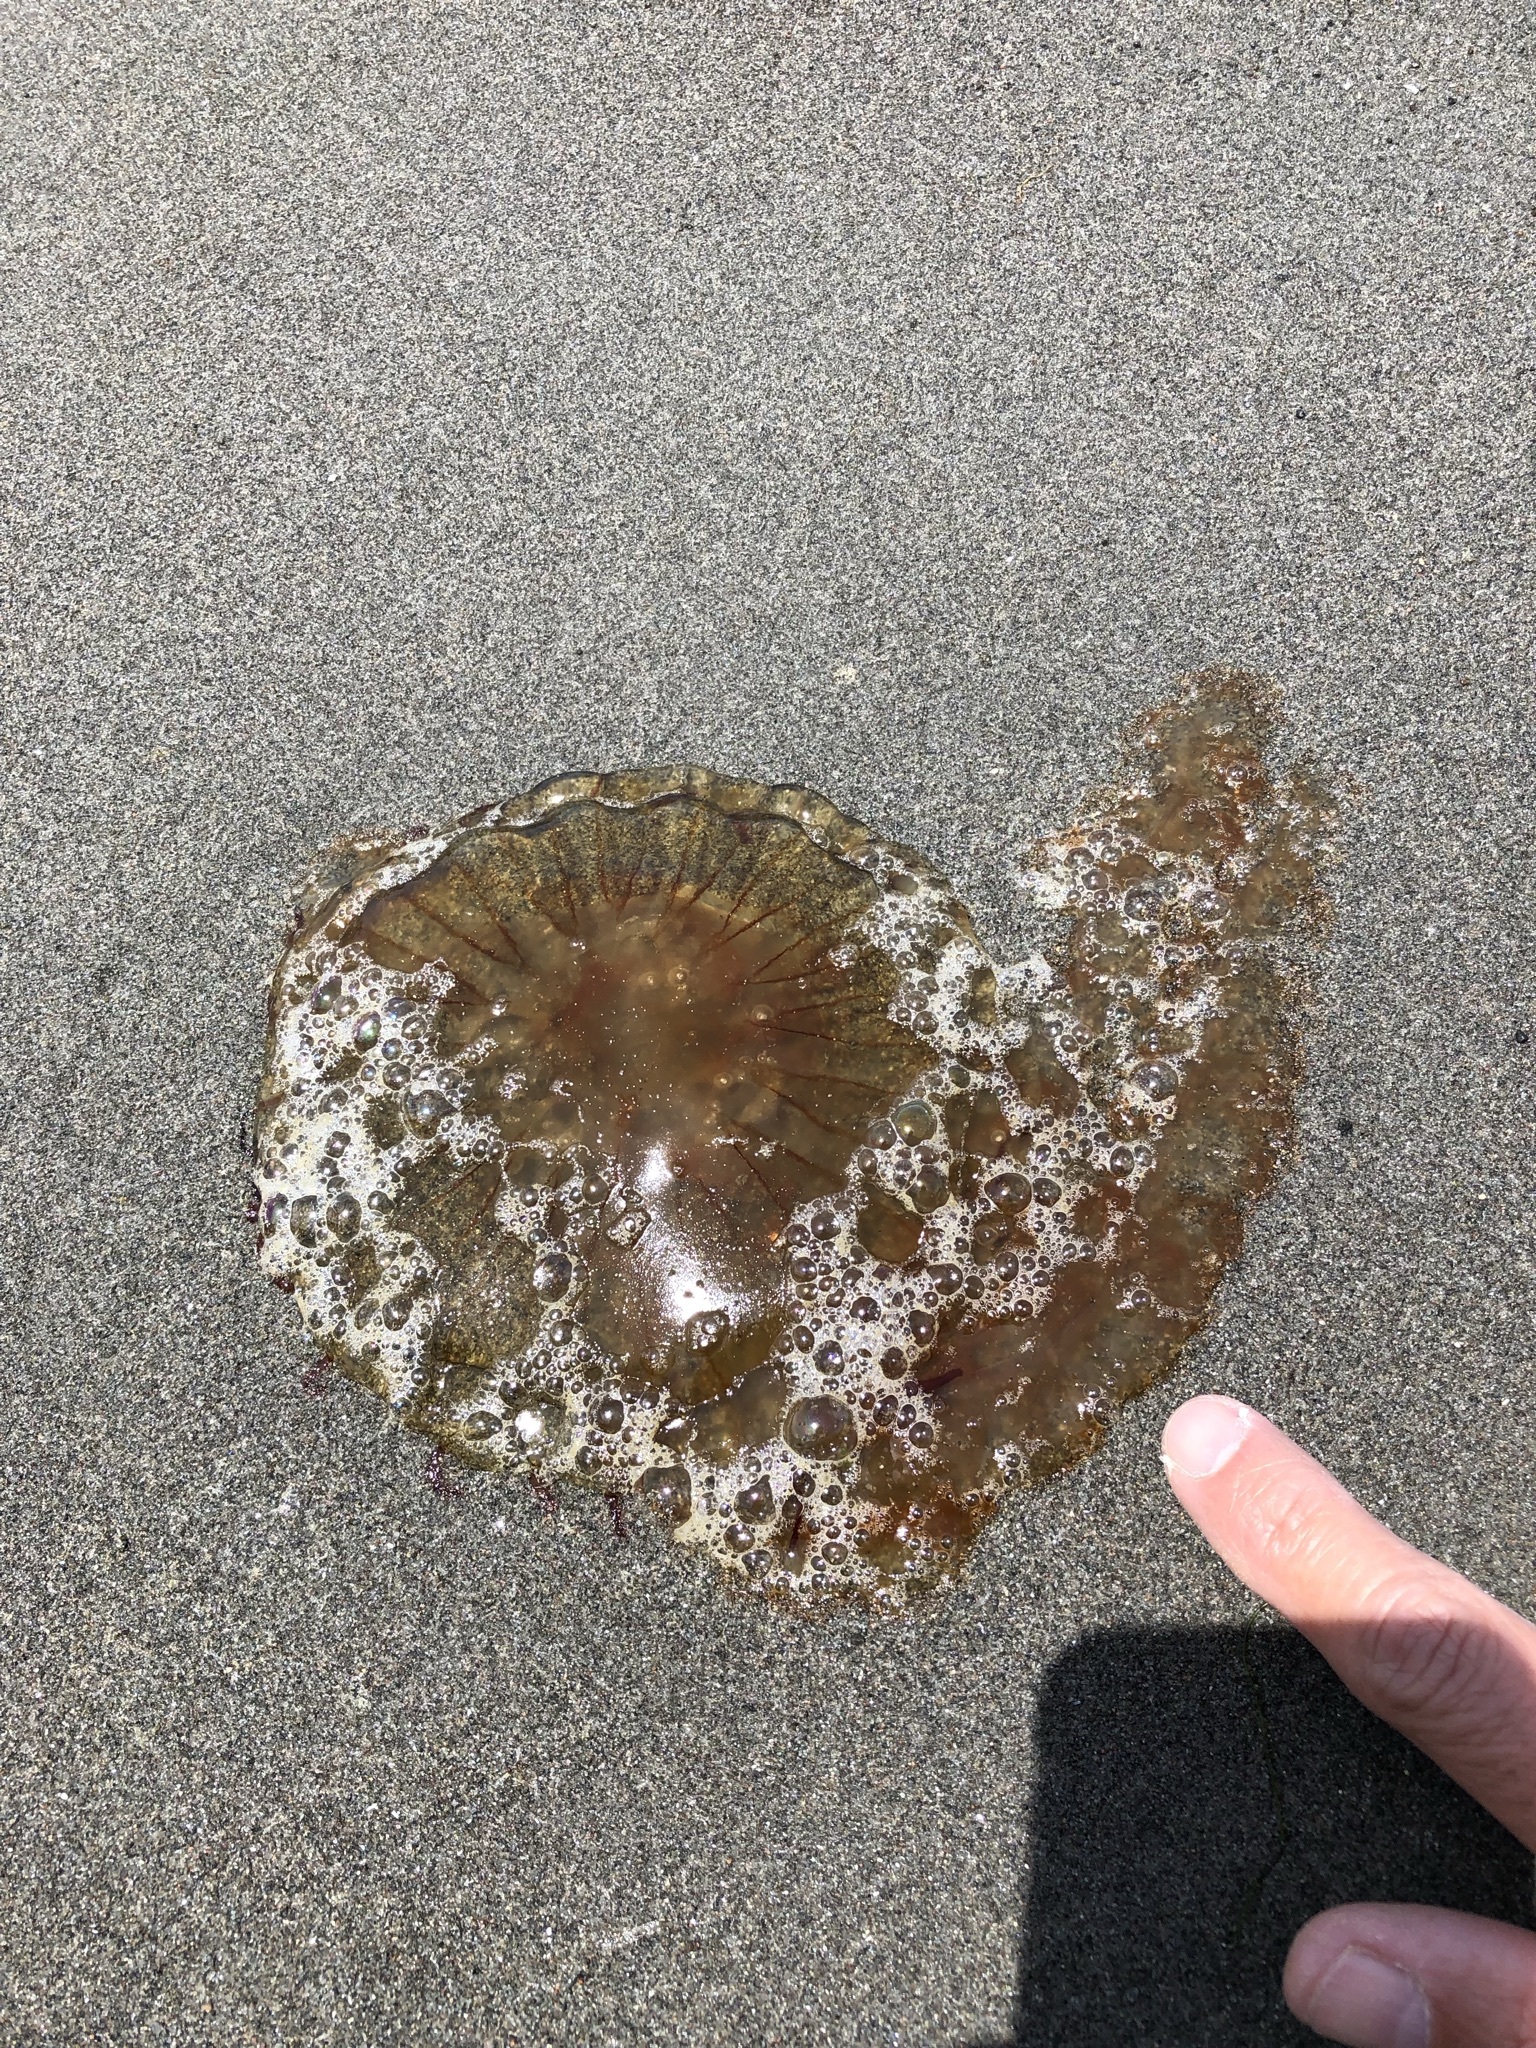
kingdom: Animalia
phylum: Cnidaria
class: Scyphozoa
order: Semaeostomeae
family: Pelagiidae
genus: Chrysaora
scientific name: Chrysaora plocamia
